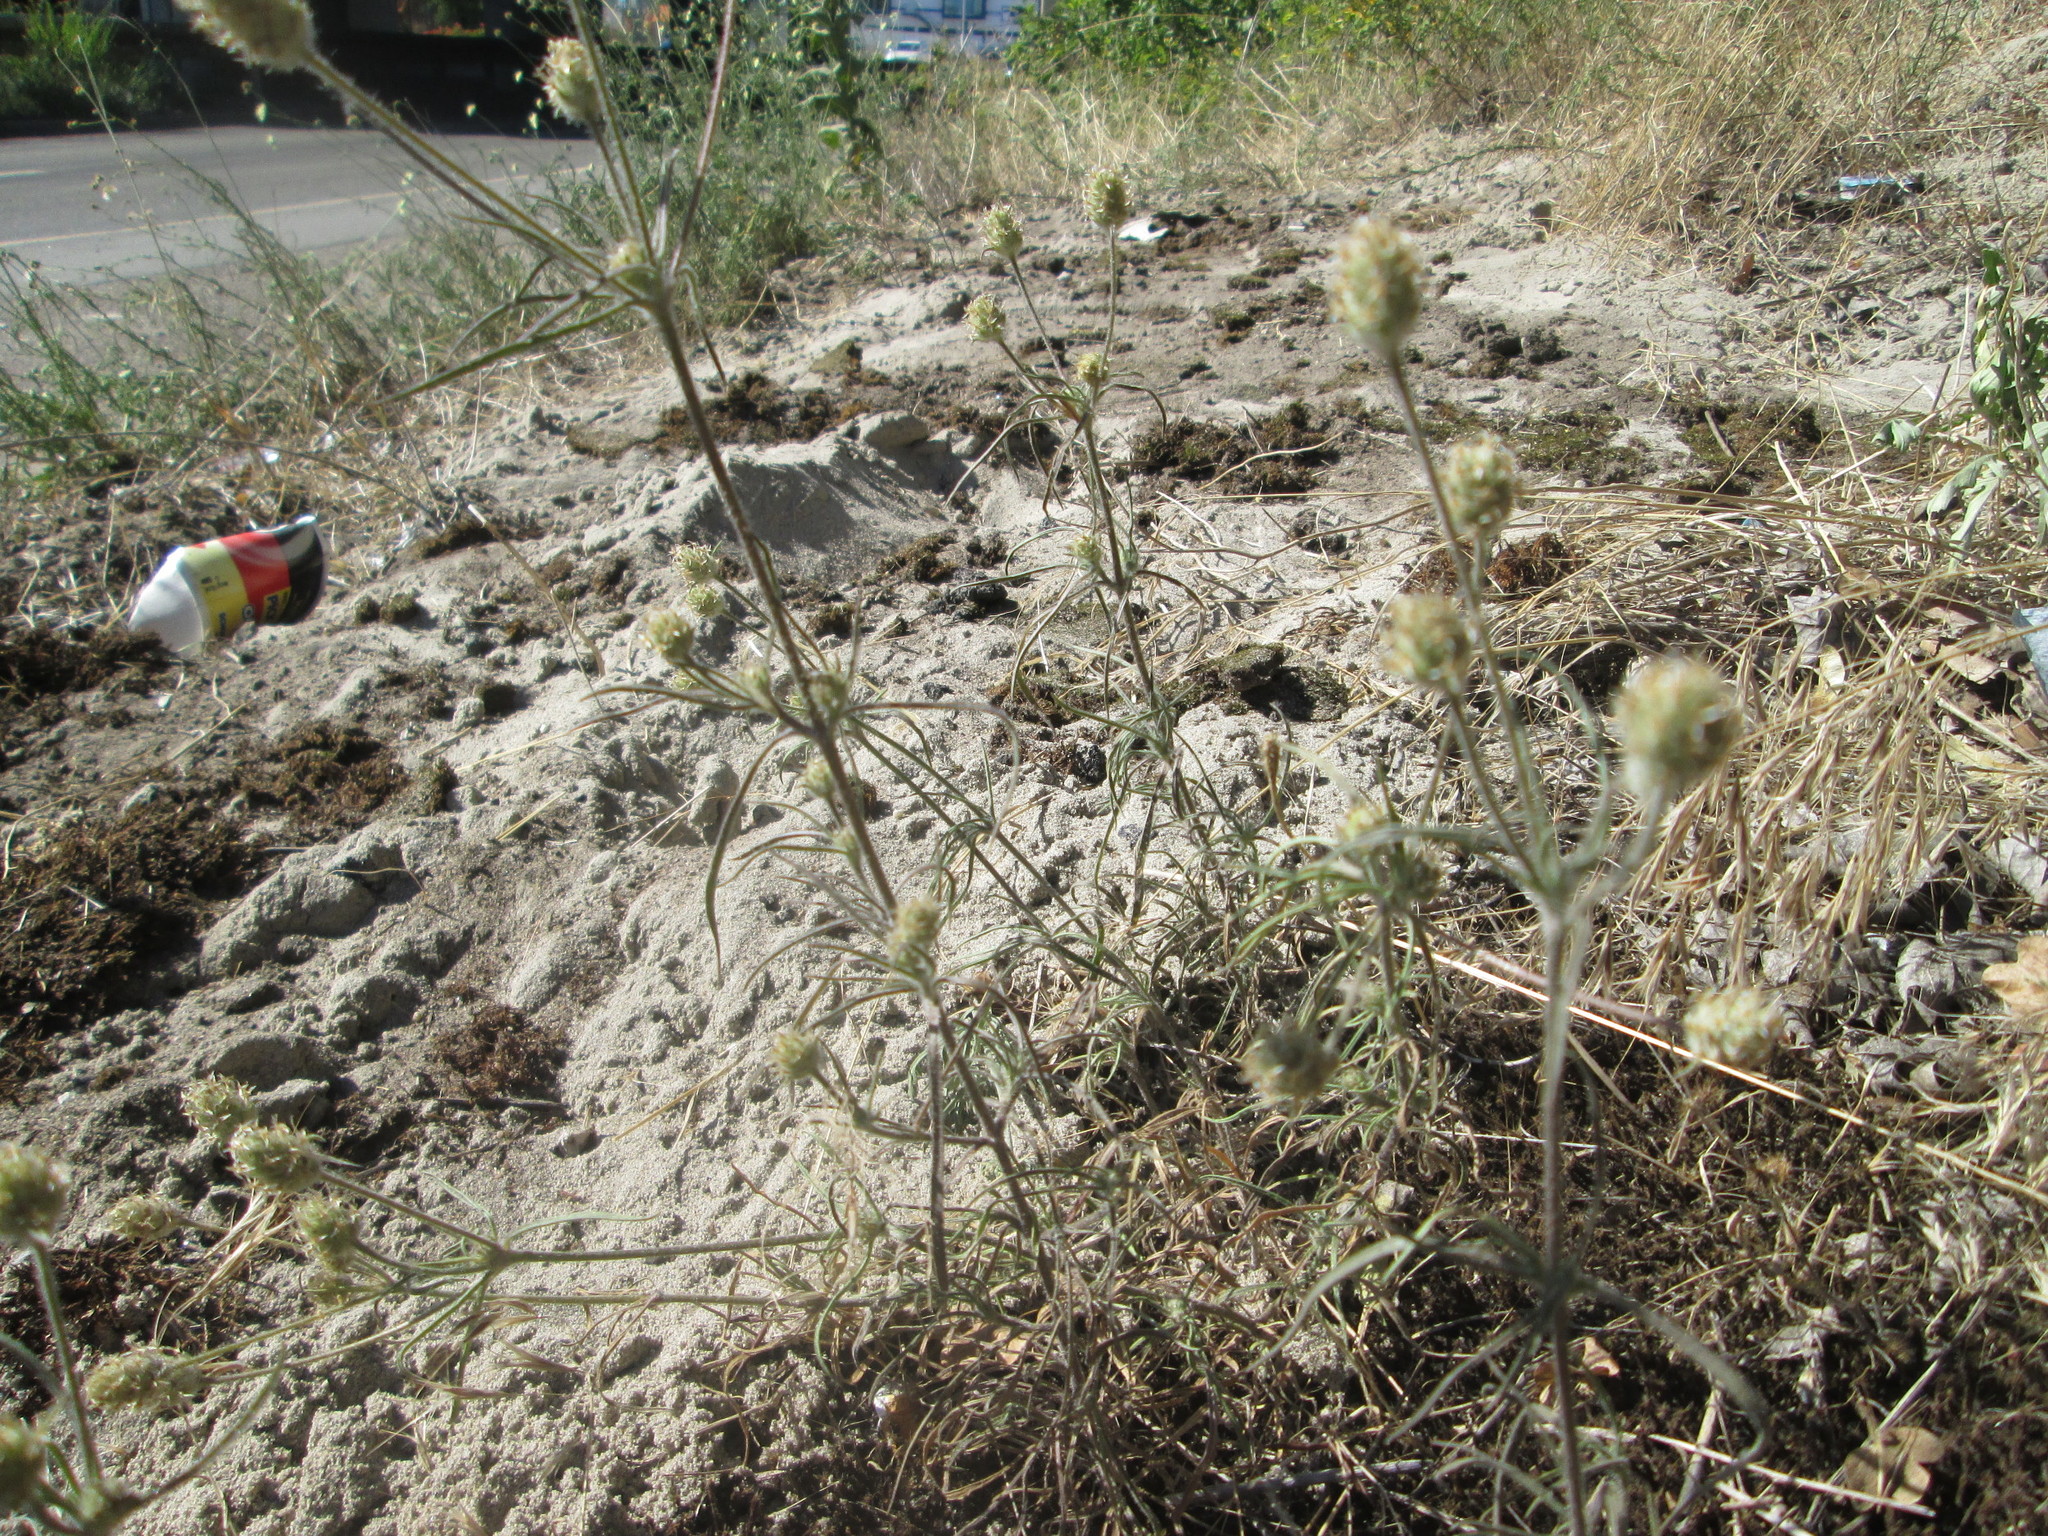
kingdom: Plantae
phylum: Tracheophyta
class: Magnoliopsida
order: Lamiales
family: Plantaginaceae
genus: Plantago
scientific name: Plantago arenaria
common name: Branched plantain
